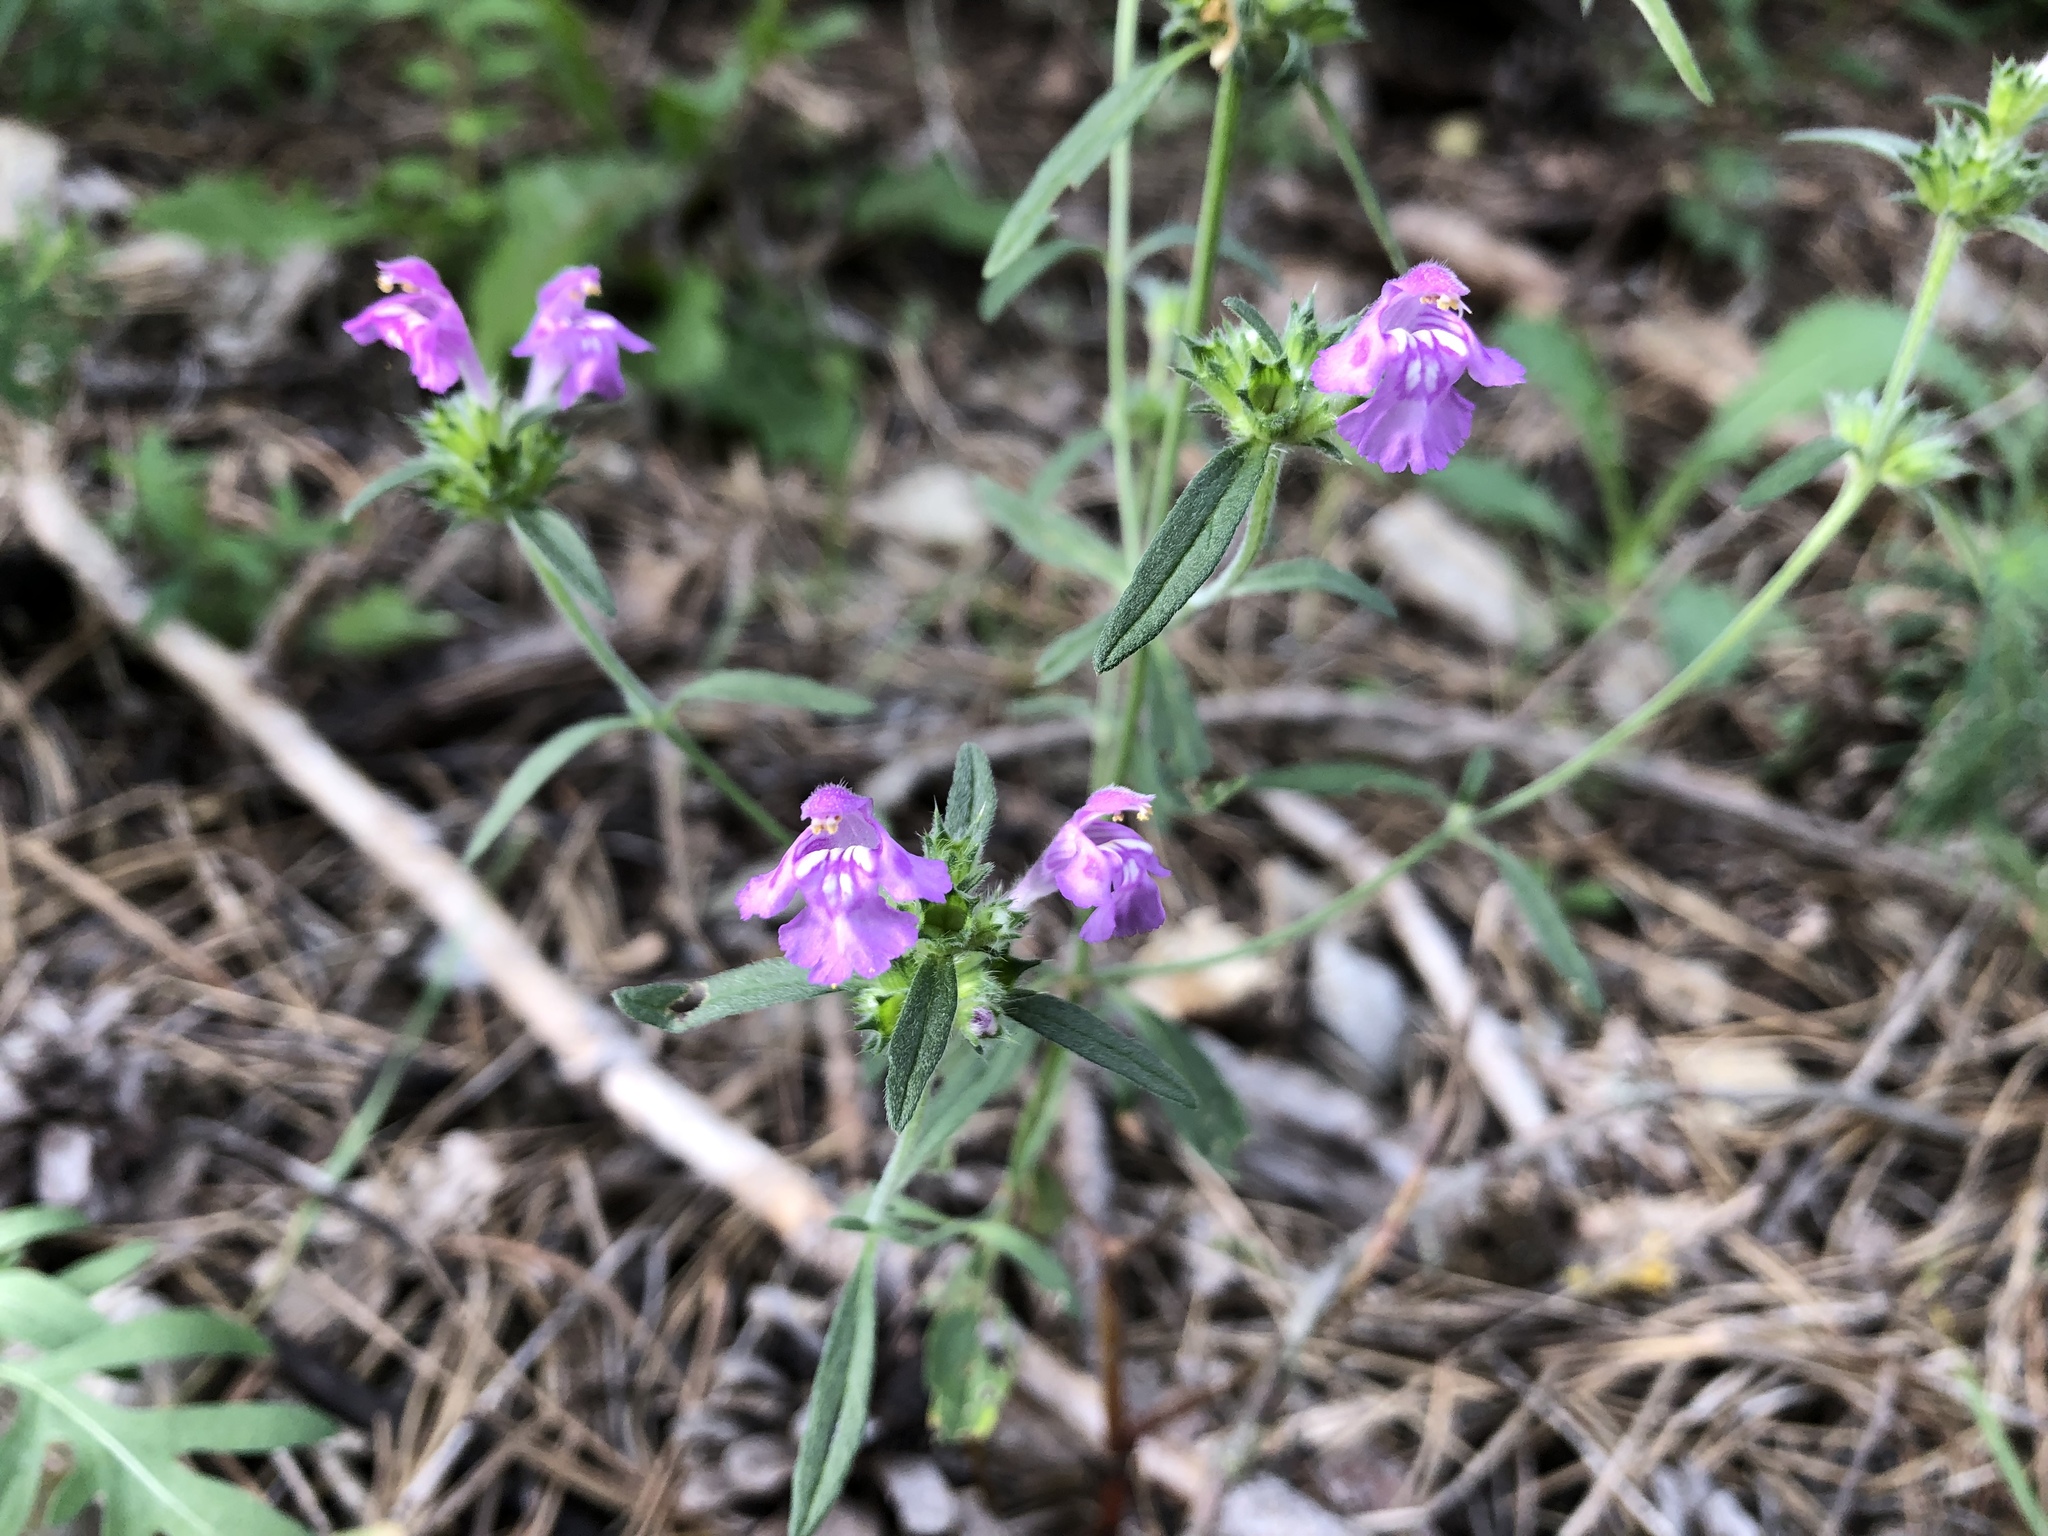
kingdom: Plantae
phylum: Tracheophyta
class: Magnoliopsida
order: Lamiales
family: Lamiaceae
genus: Galeopsis
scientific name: Galeopsis angustifolia
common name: Red hemp-nettle
